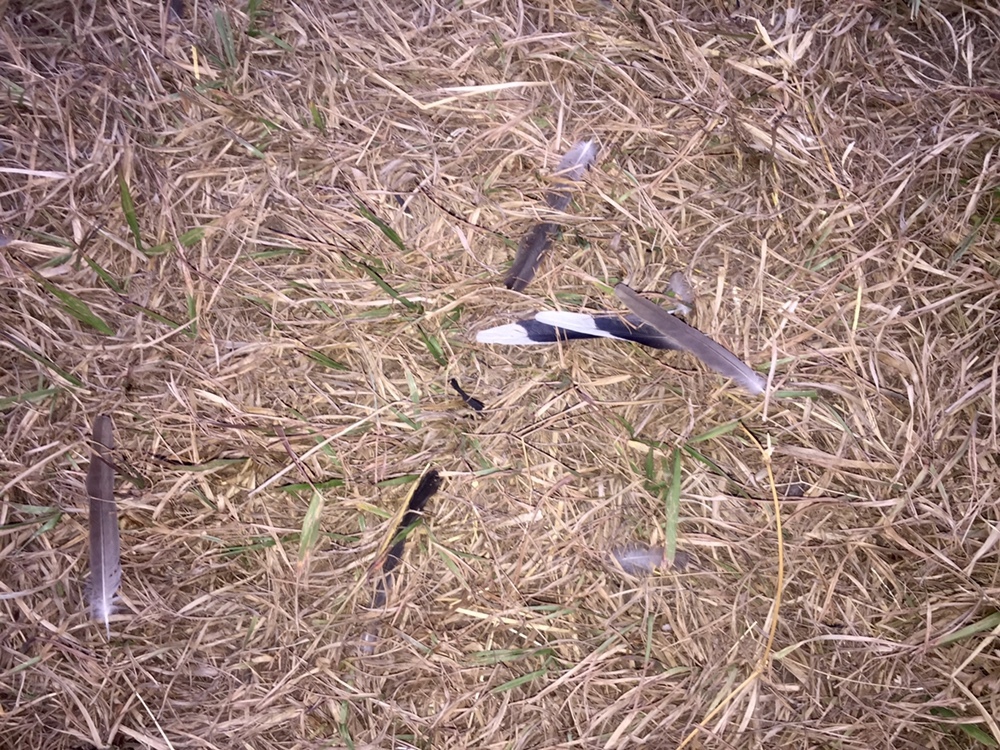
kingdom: Animalia
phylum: Chordata
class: Aves
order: Columbiformes
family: Columbidae
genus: Columbina
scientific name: Columbina inca
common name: Inca dove
